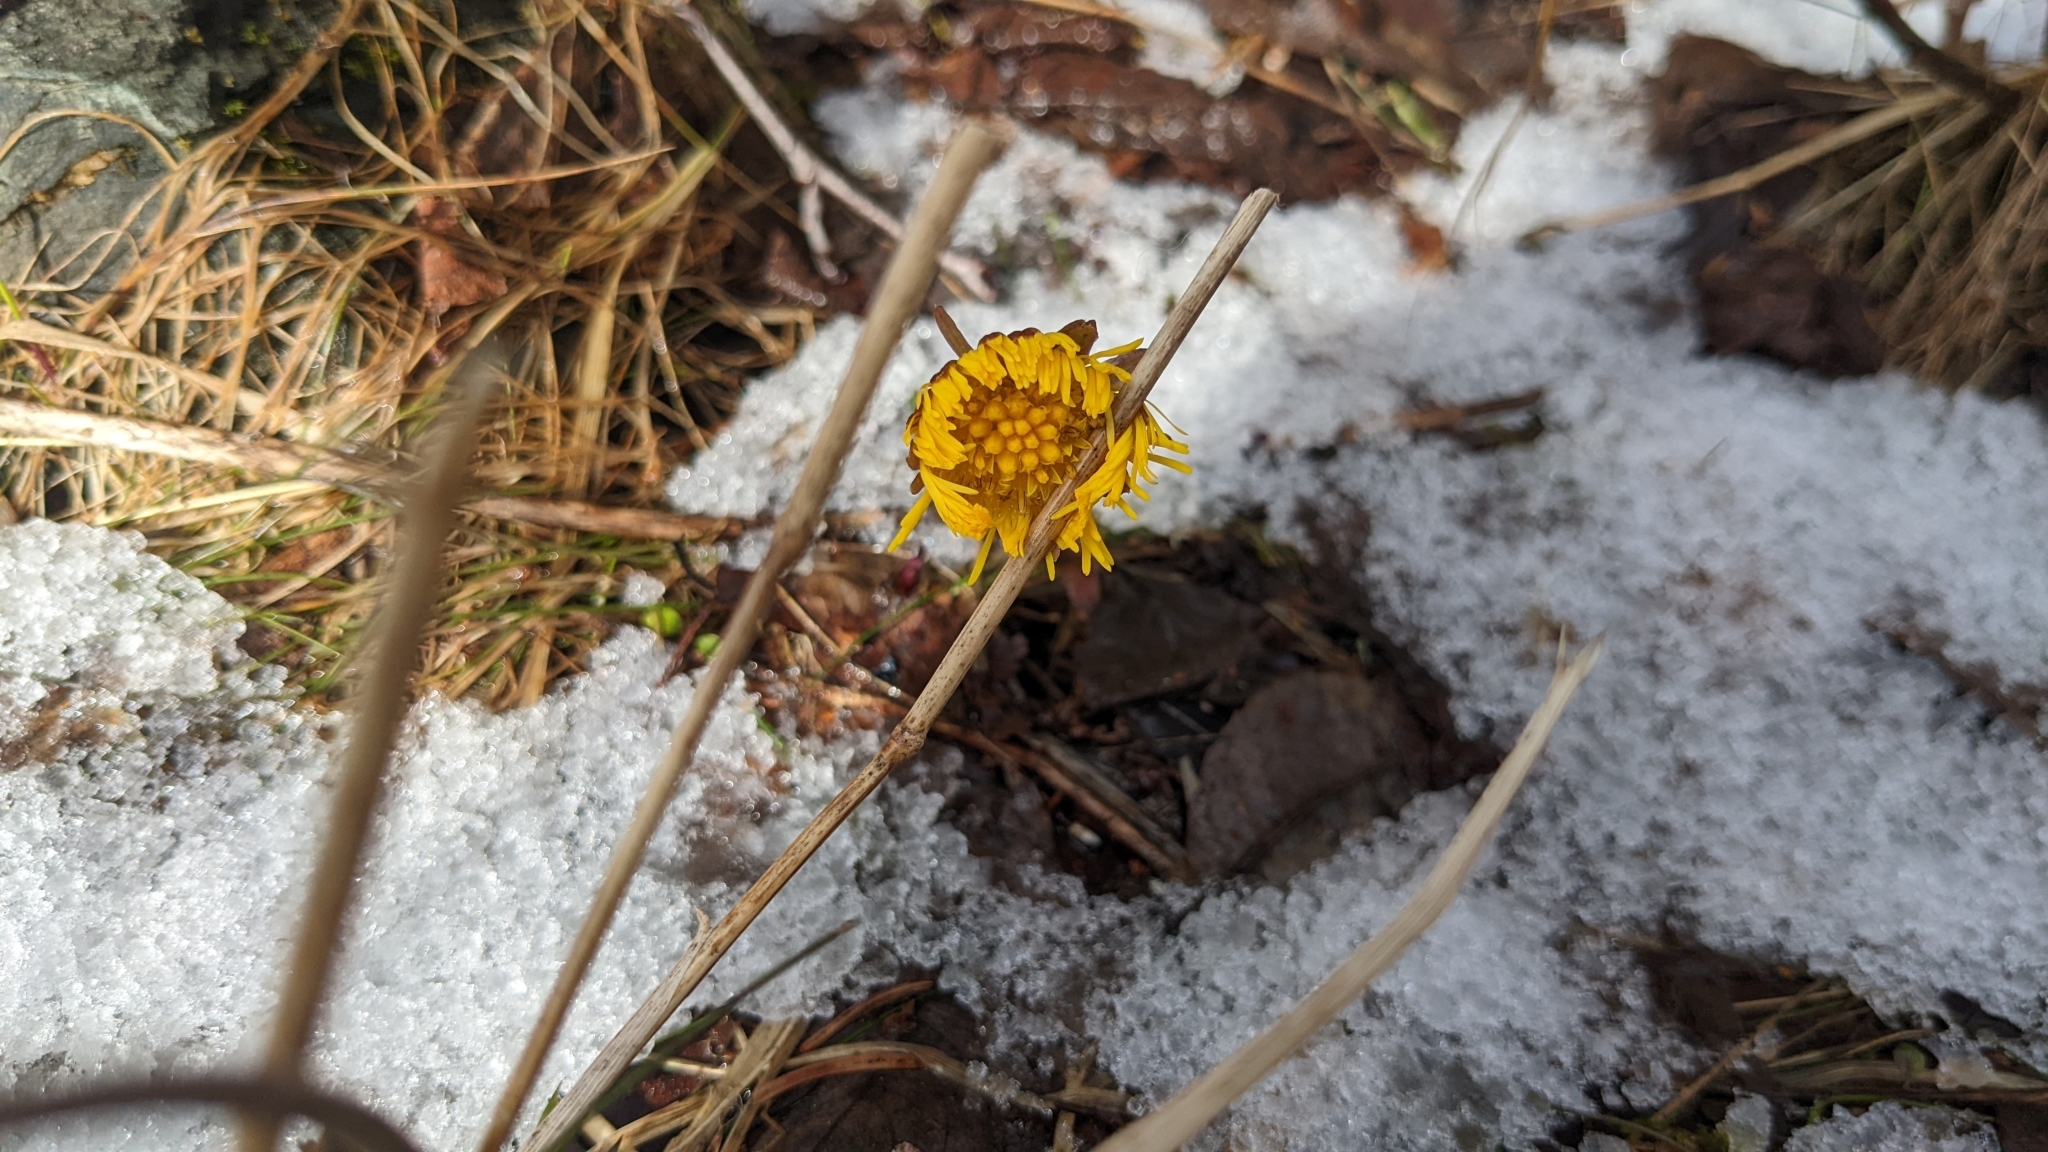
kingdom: Plantae
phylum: Tracheophyta
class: Magnoliopsida
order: Asterales
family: Asteraceae
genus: Tussilago
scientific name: Tussilago farfara
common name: Coltsfoot
